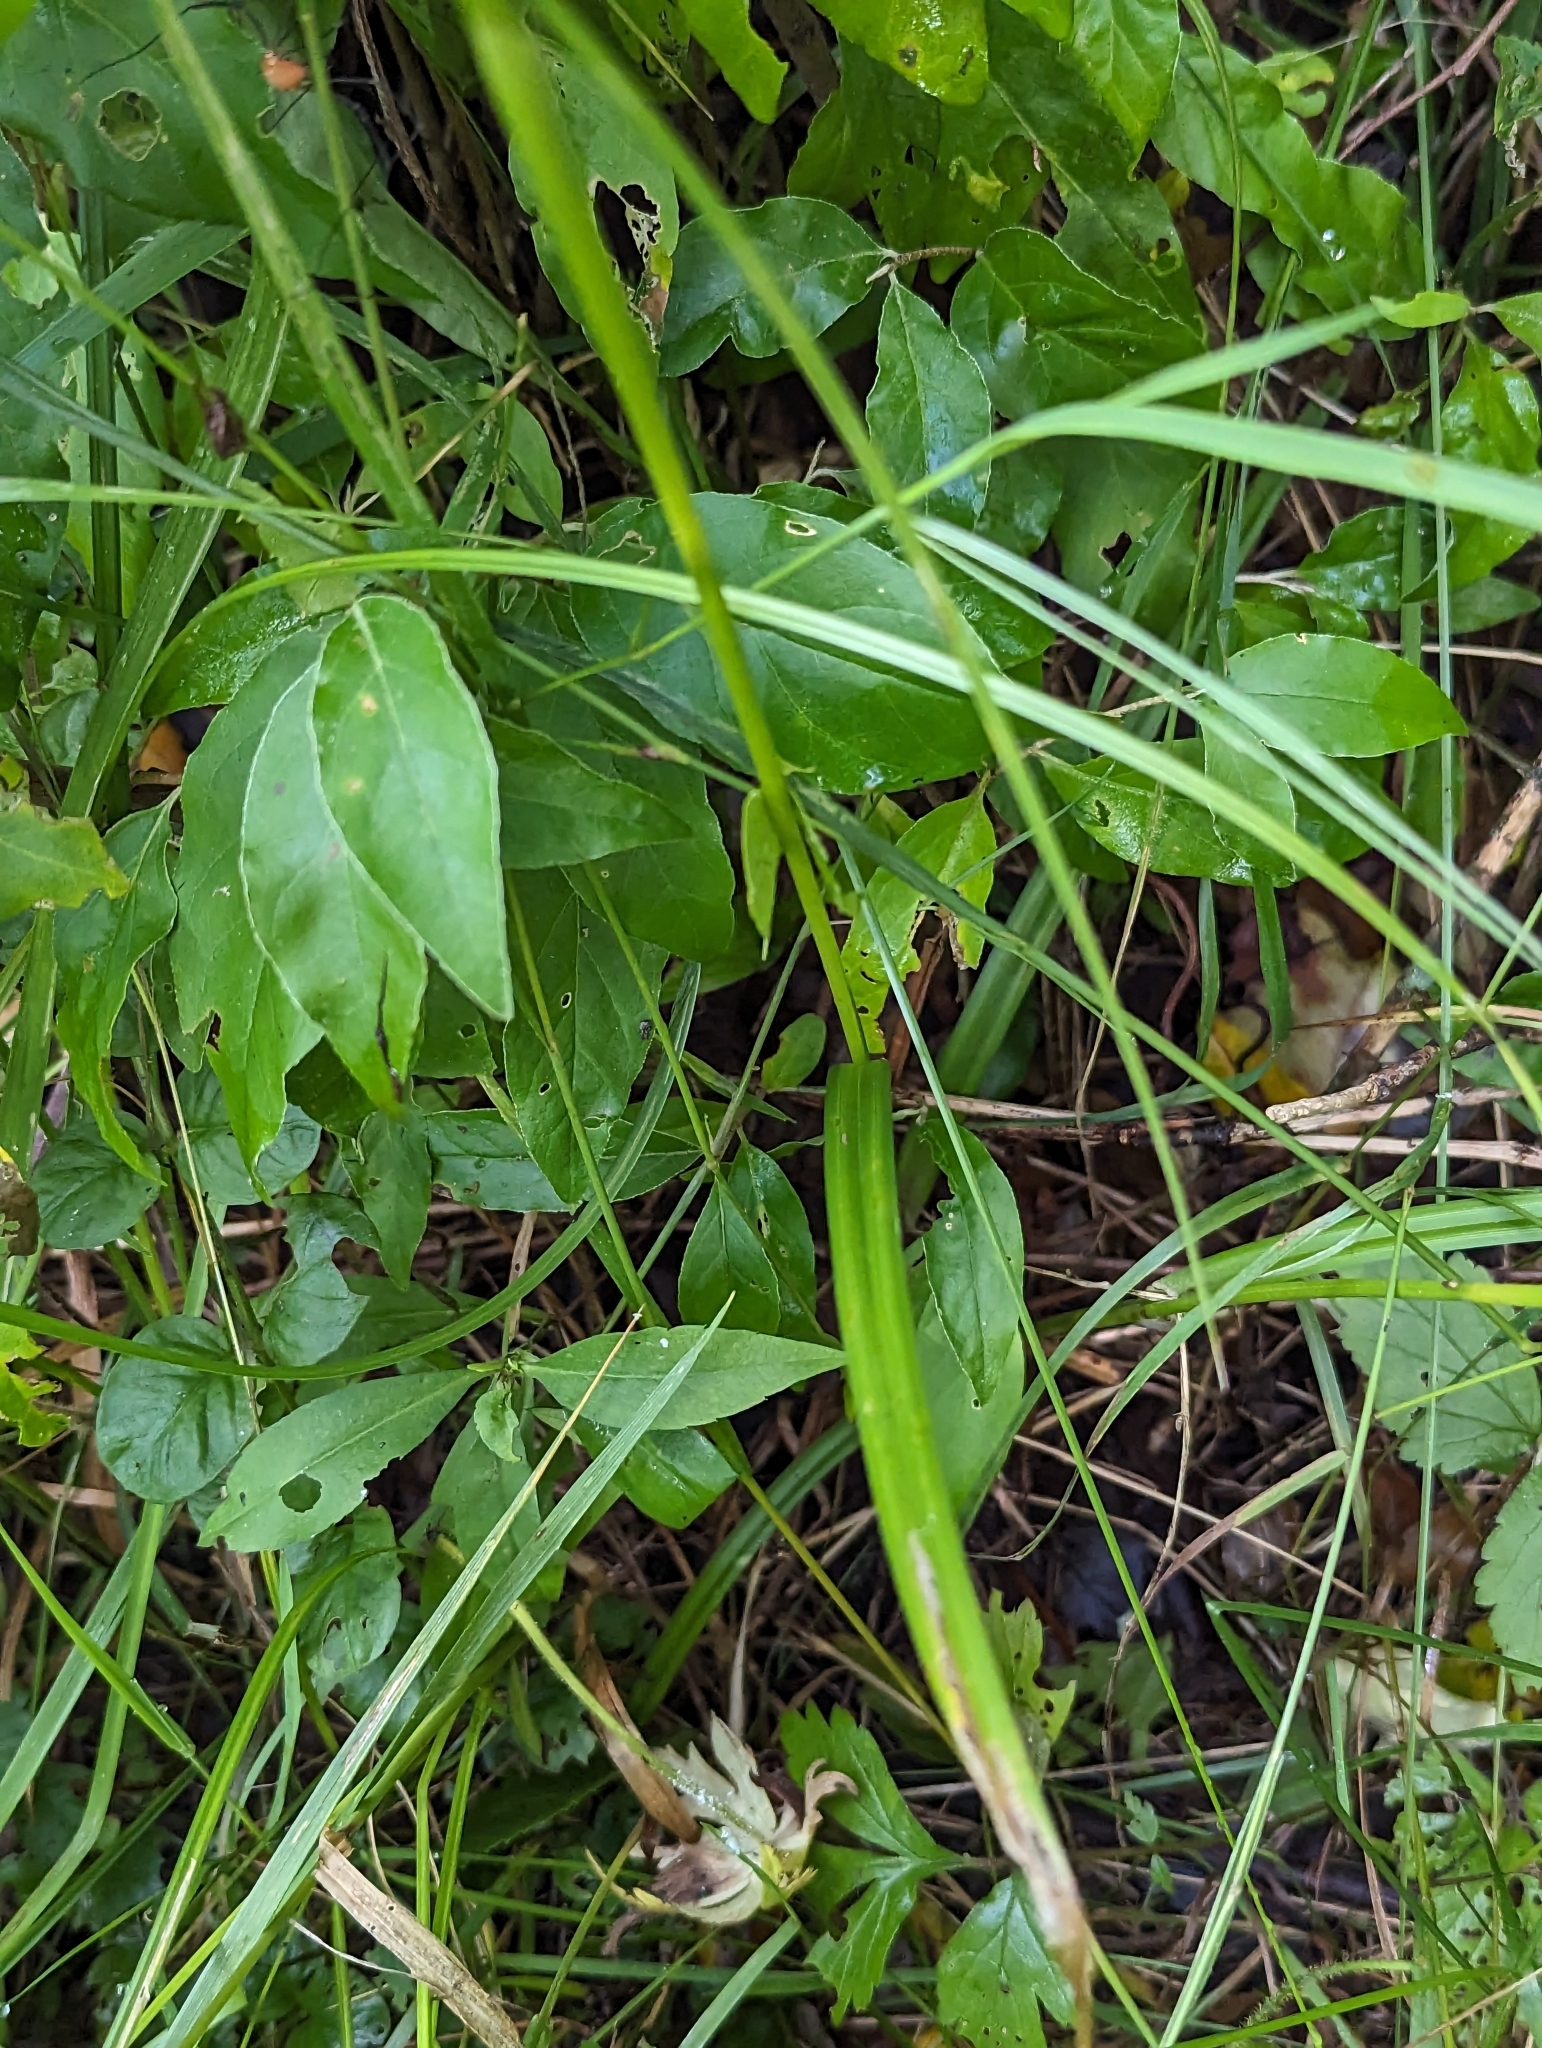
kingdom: Plantae
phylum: Tracheophyta
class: Liliopsida
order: Poales
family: Cyperaceae
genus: Carex
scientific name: Carex grayi
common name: Asa gray's sedge
